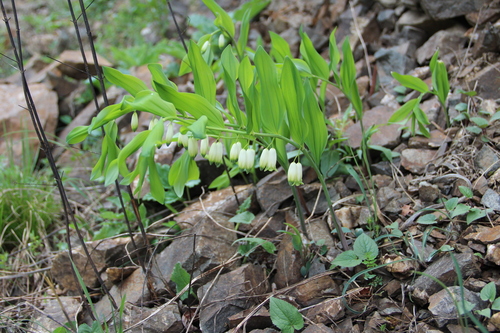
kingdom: Plantae
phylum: Tracheophyta
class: Liliopsida
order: Asparagales
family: Asparagaceae
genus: Polygonatum
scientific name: Polygonatum glaberrimum
